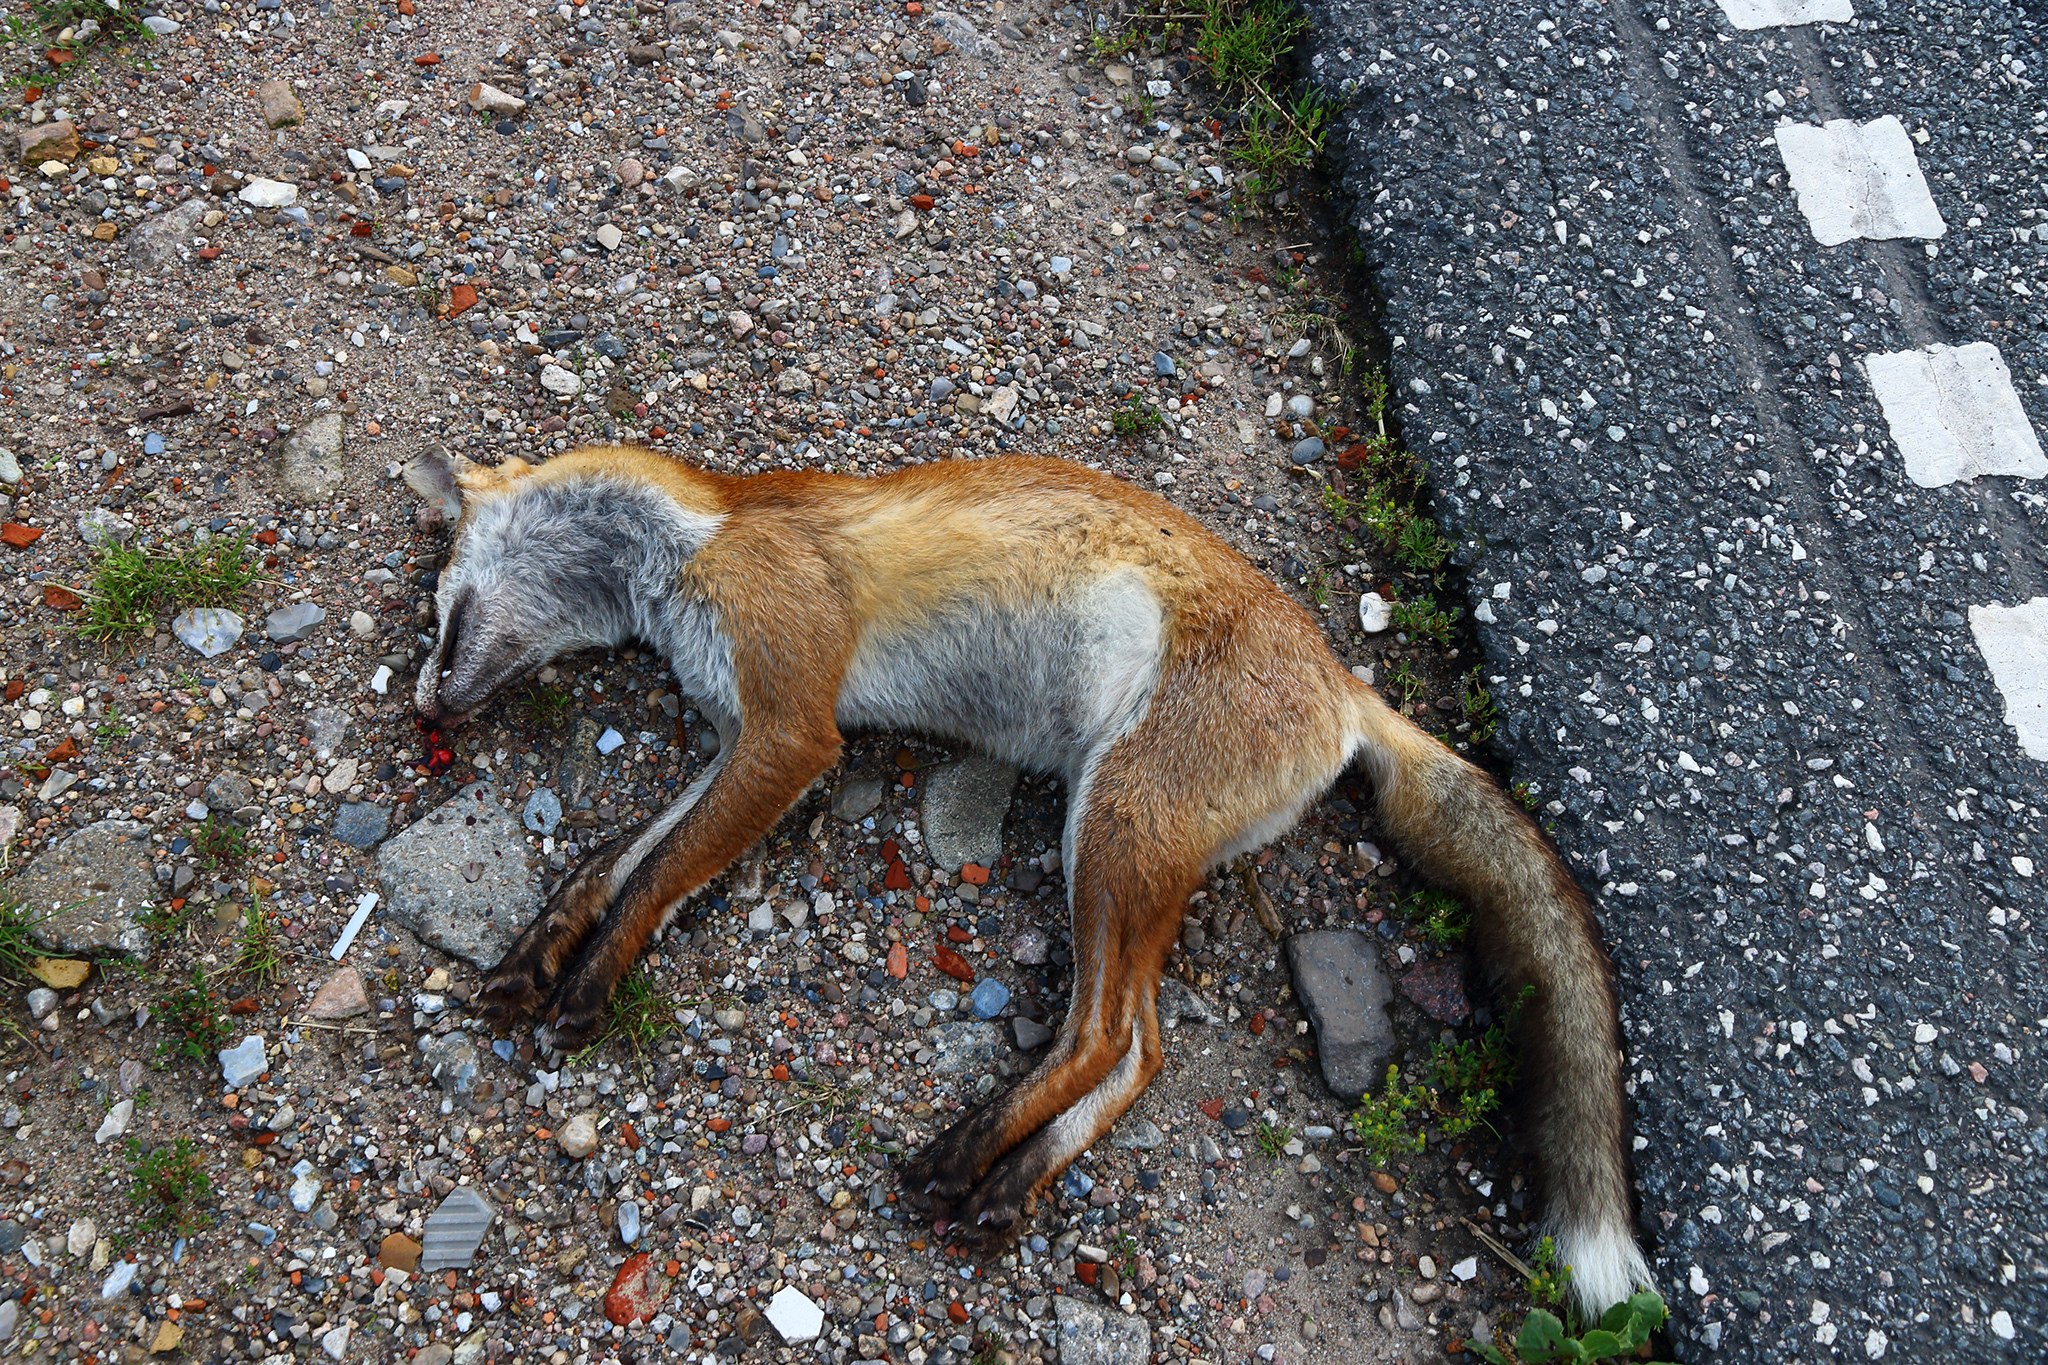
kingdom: Animalia
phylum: Chordata
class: Mammalia
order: Carnivora
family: Canidae
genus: Vulpes
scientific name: Vulpes vulpes
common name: Red fox
